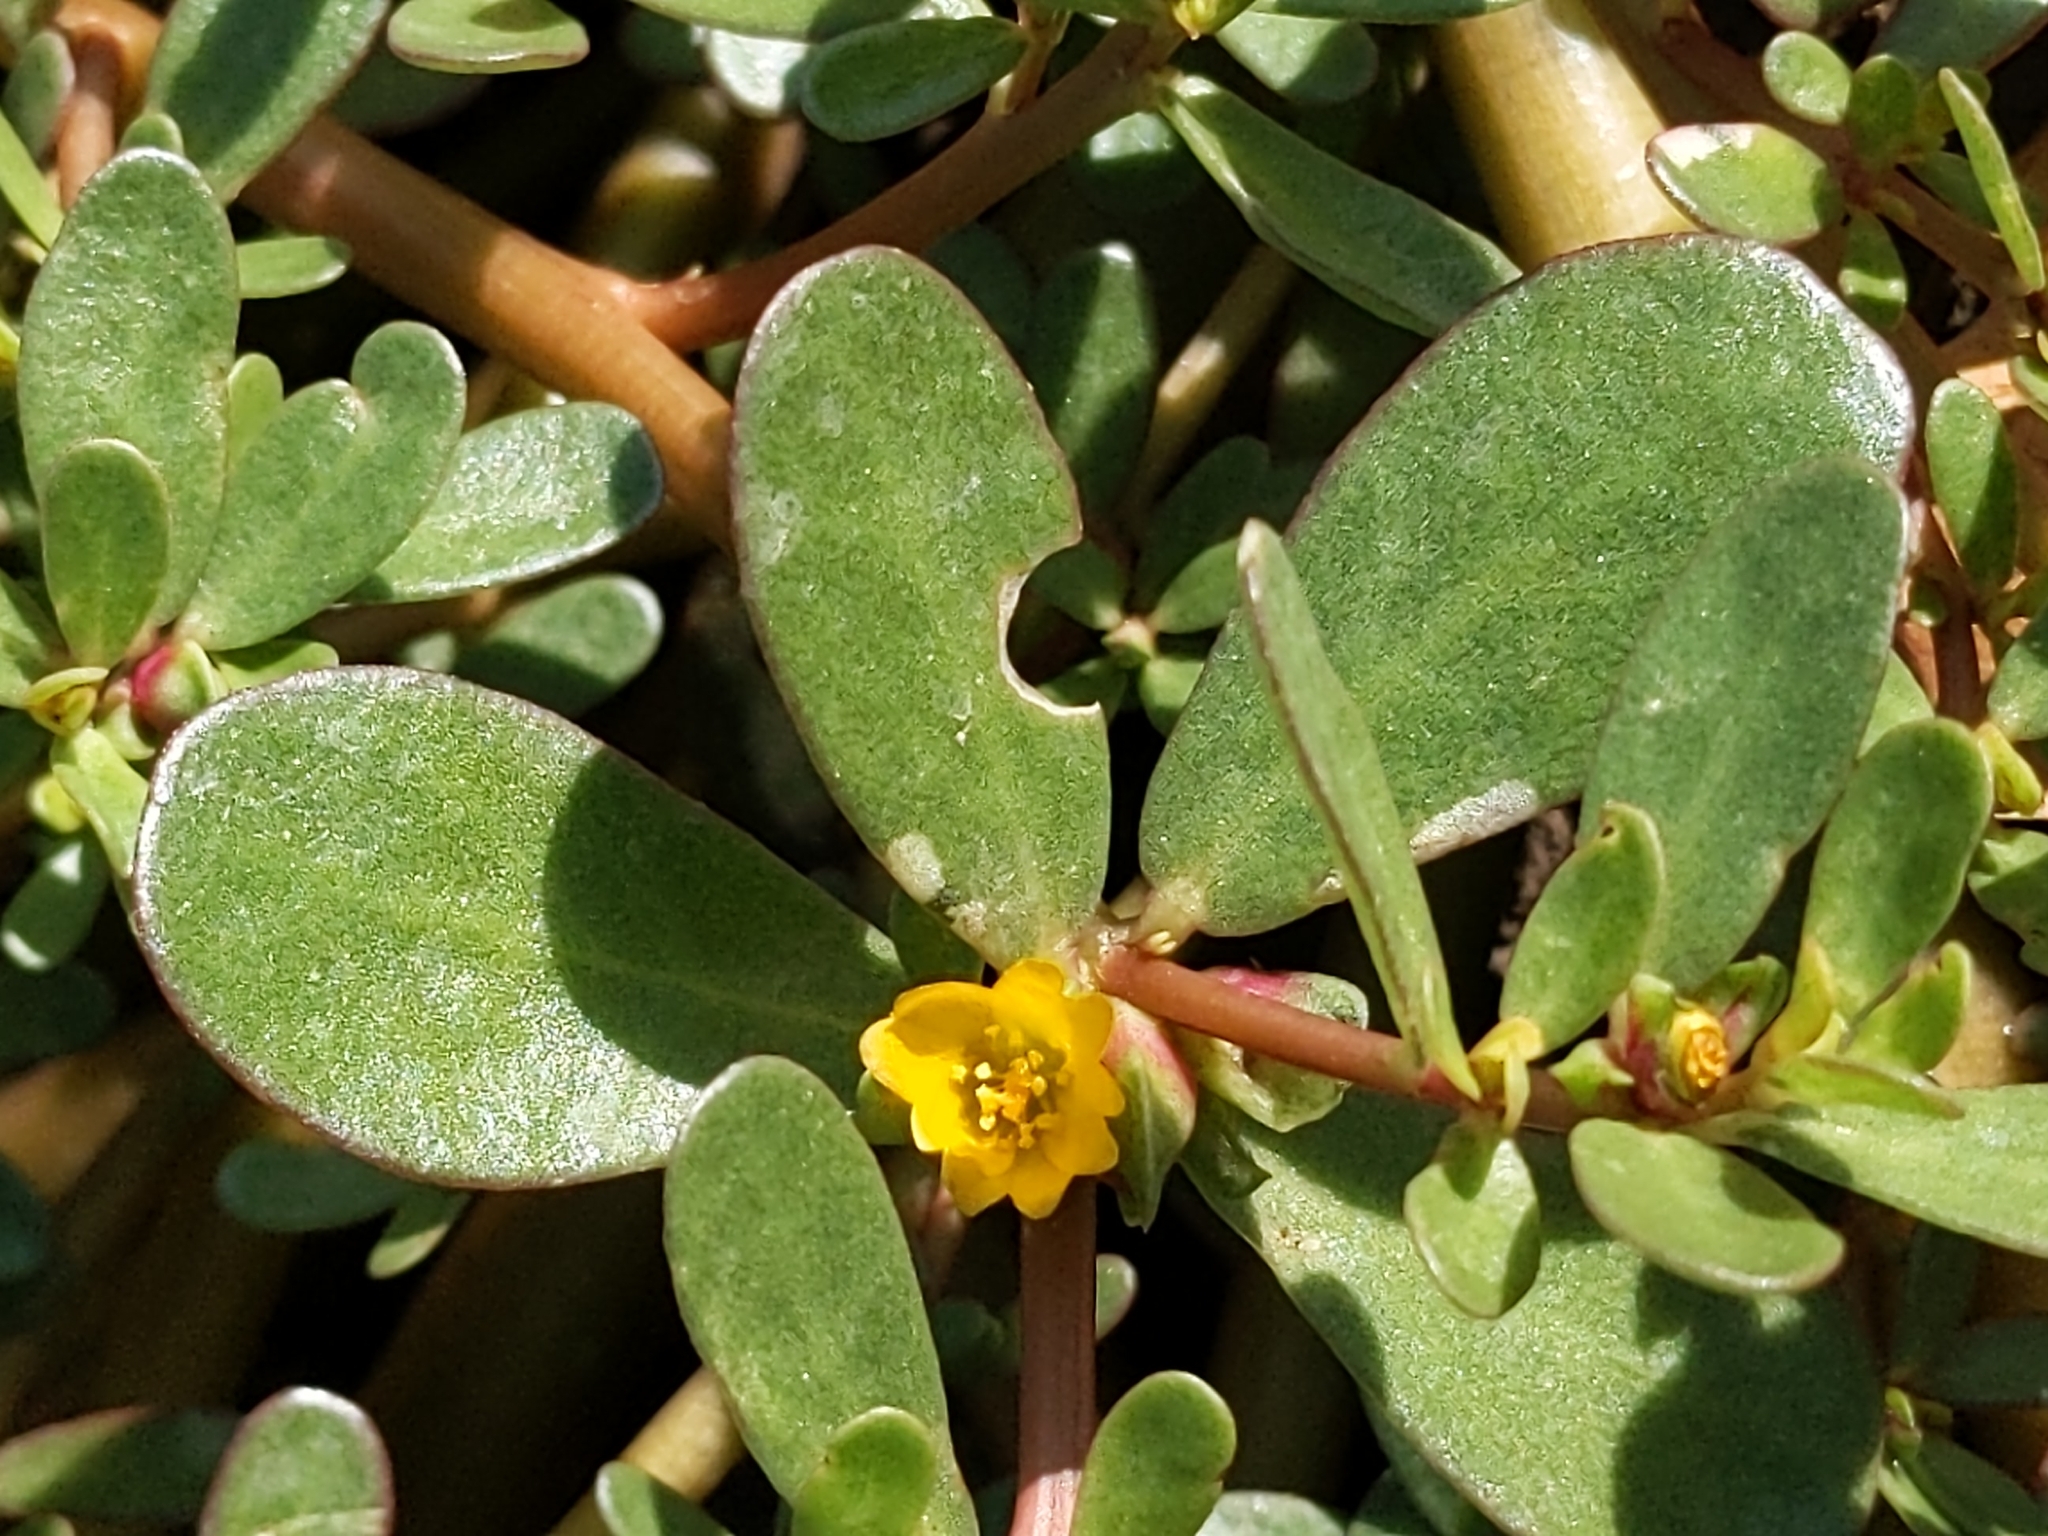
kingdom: Plantae
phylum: Tracheophyta
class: Magnoliopsida
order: Caryophyllales
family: Portulacaceae
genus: Portulaca
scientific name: Portulaca oleracea
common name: Common purslane
